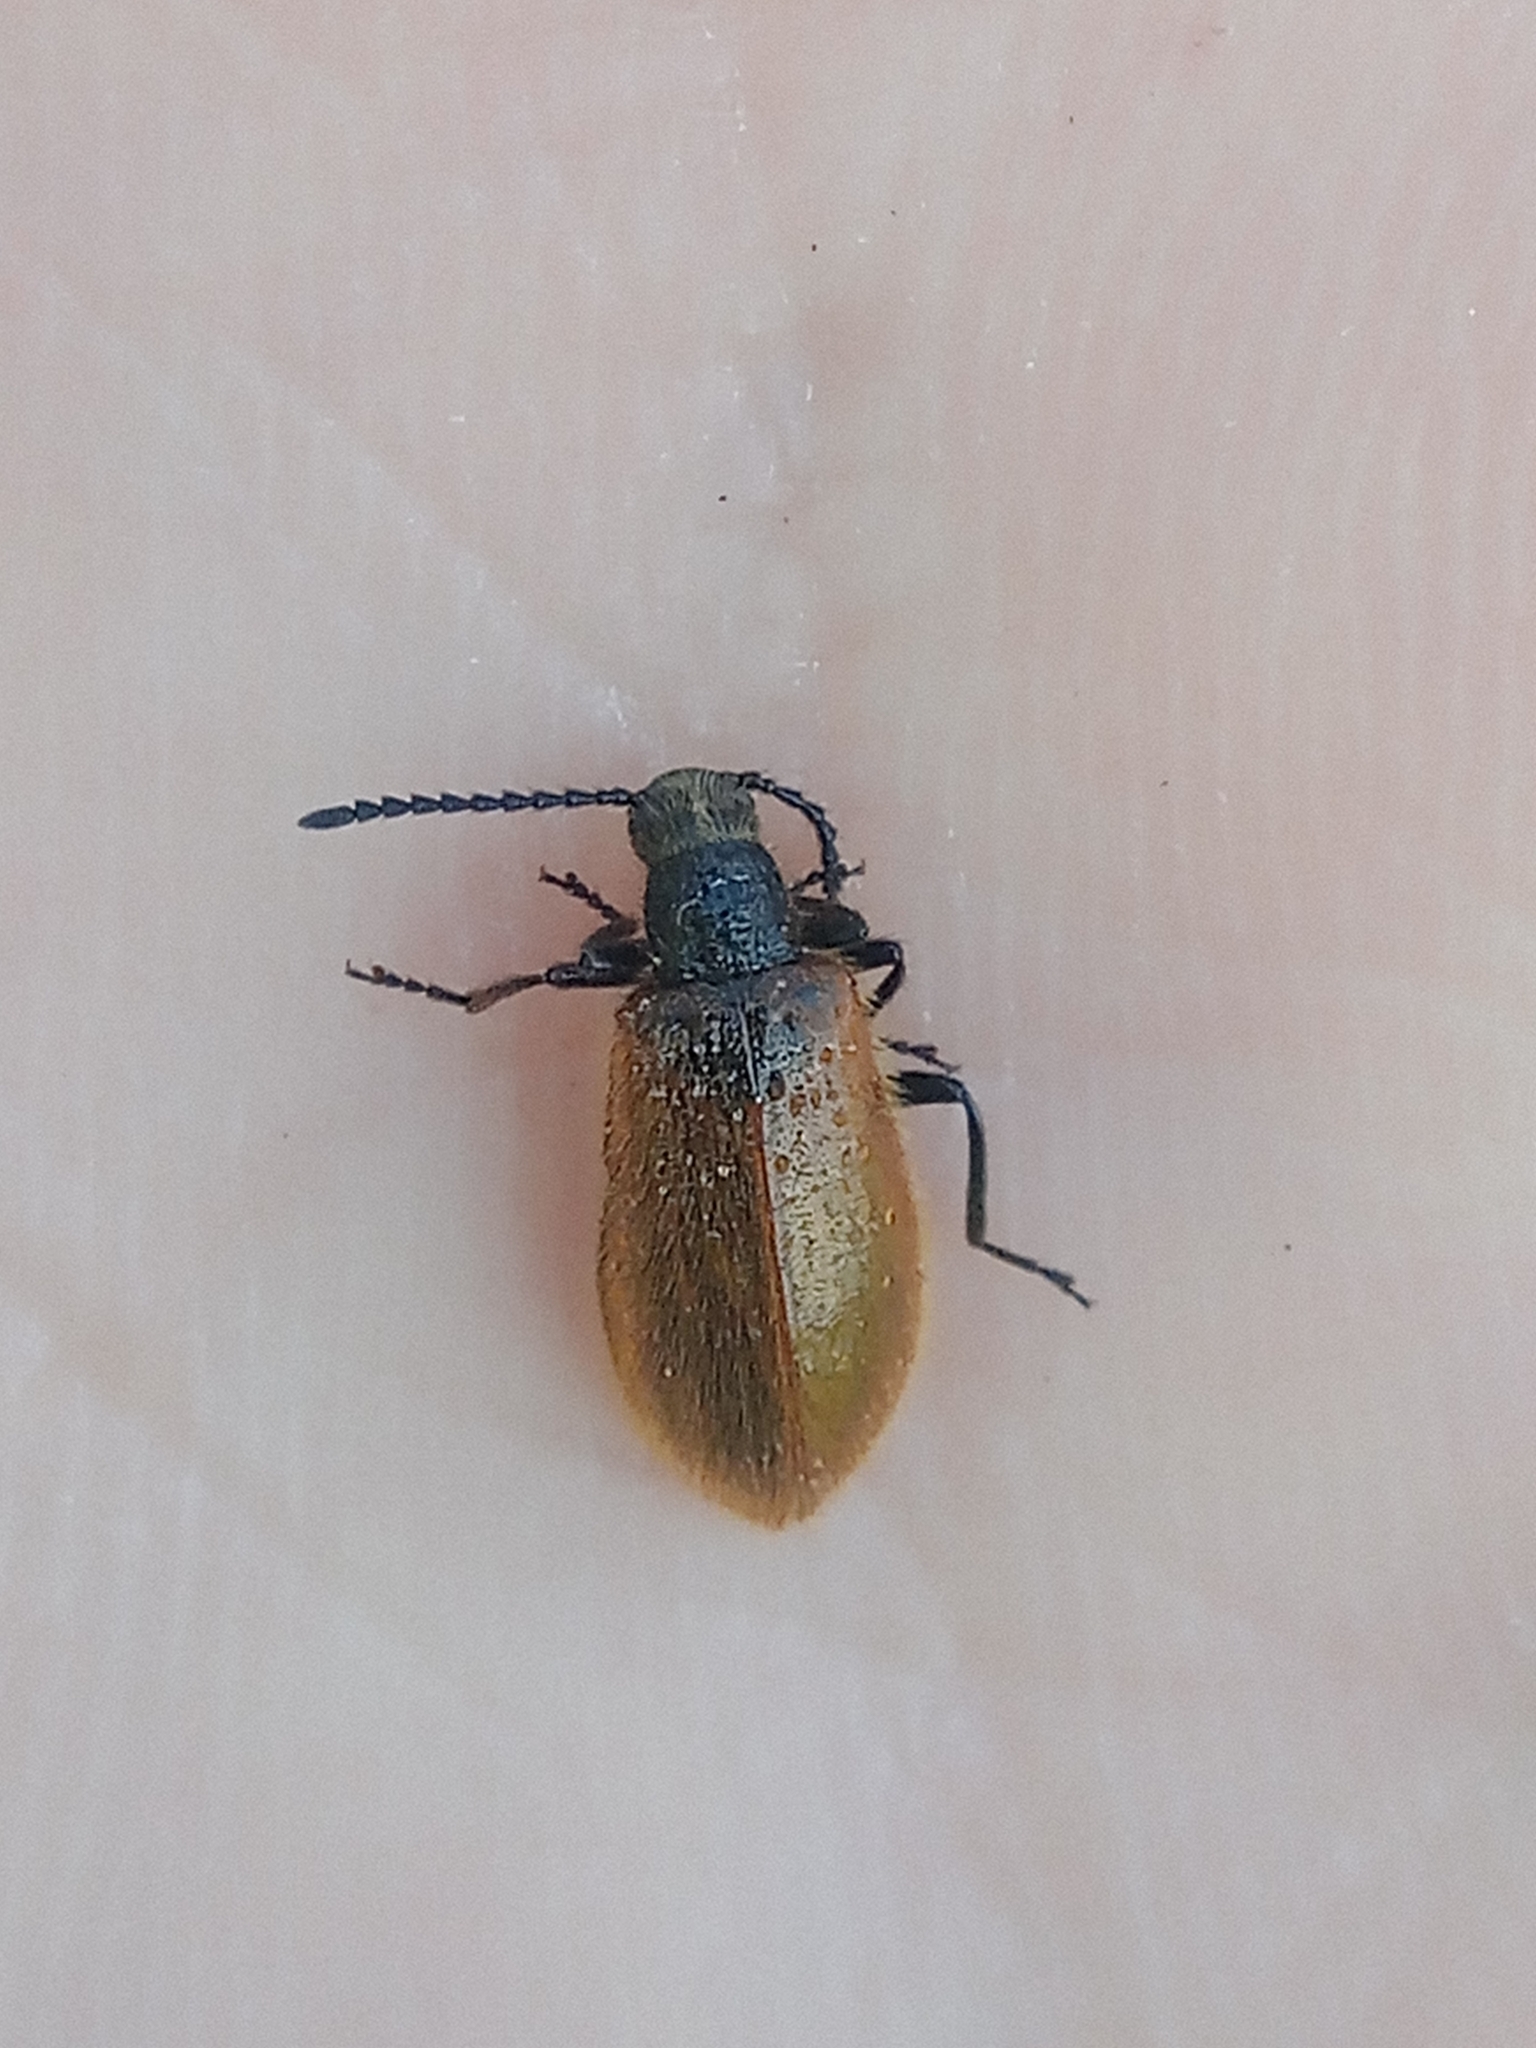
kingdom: Animalia
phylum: Arthropoda
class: Insecta
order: Coleoptera
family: Tenebrionidae
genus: Lagria
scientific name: Lagria hirta
